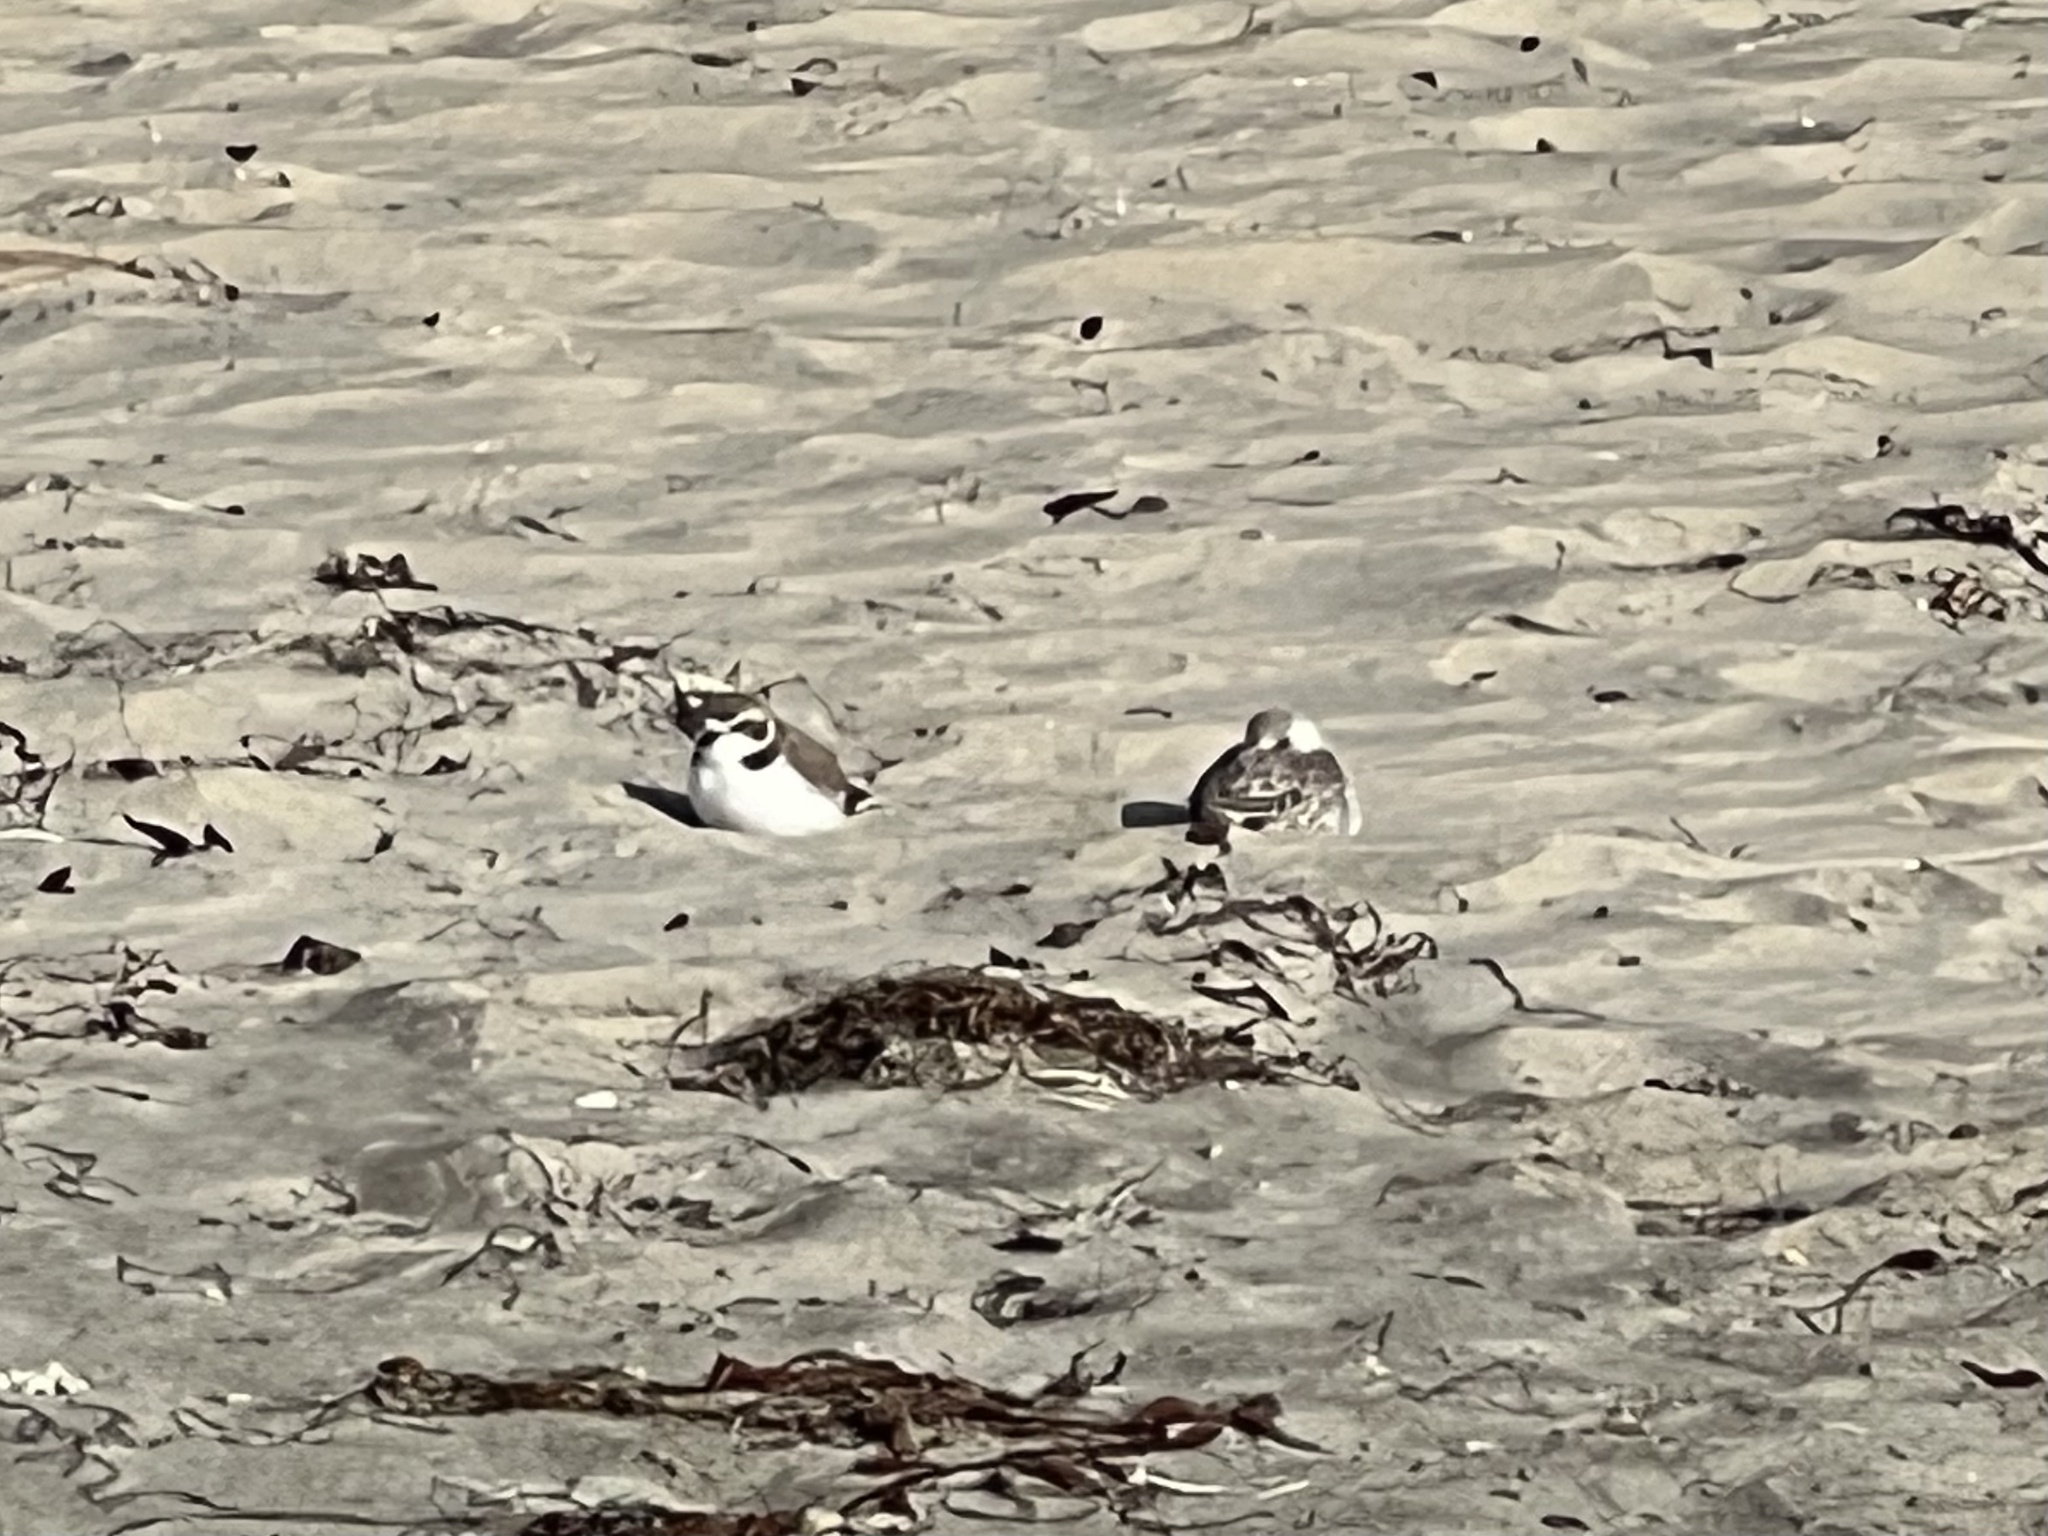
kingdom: Animalia
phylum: Chordata
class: Aves
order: Charadriiformes
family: Charadriidae
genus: Anarhynchus
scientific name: Anarhynchus
